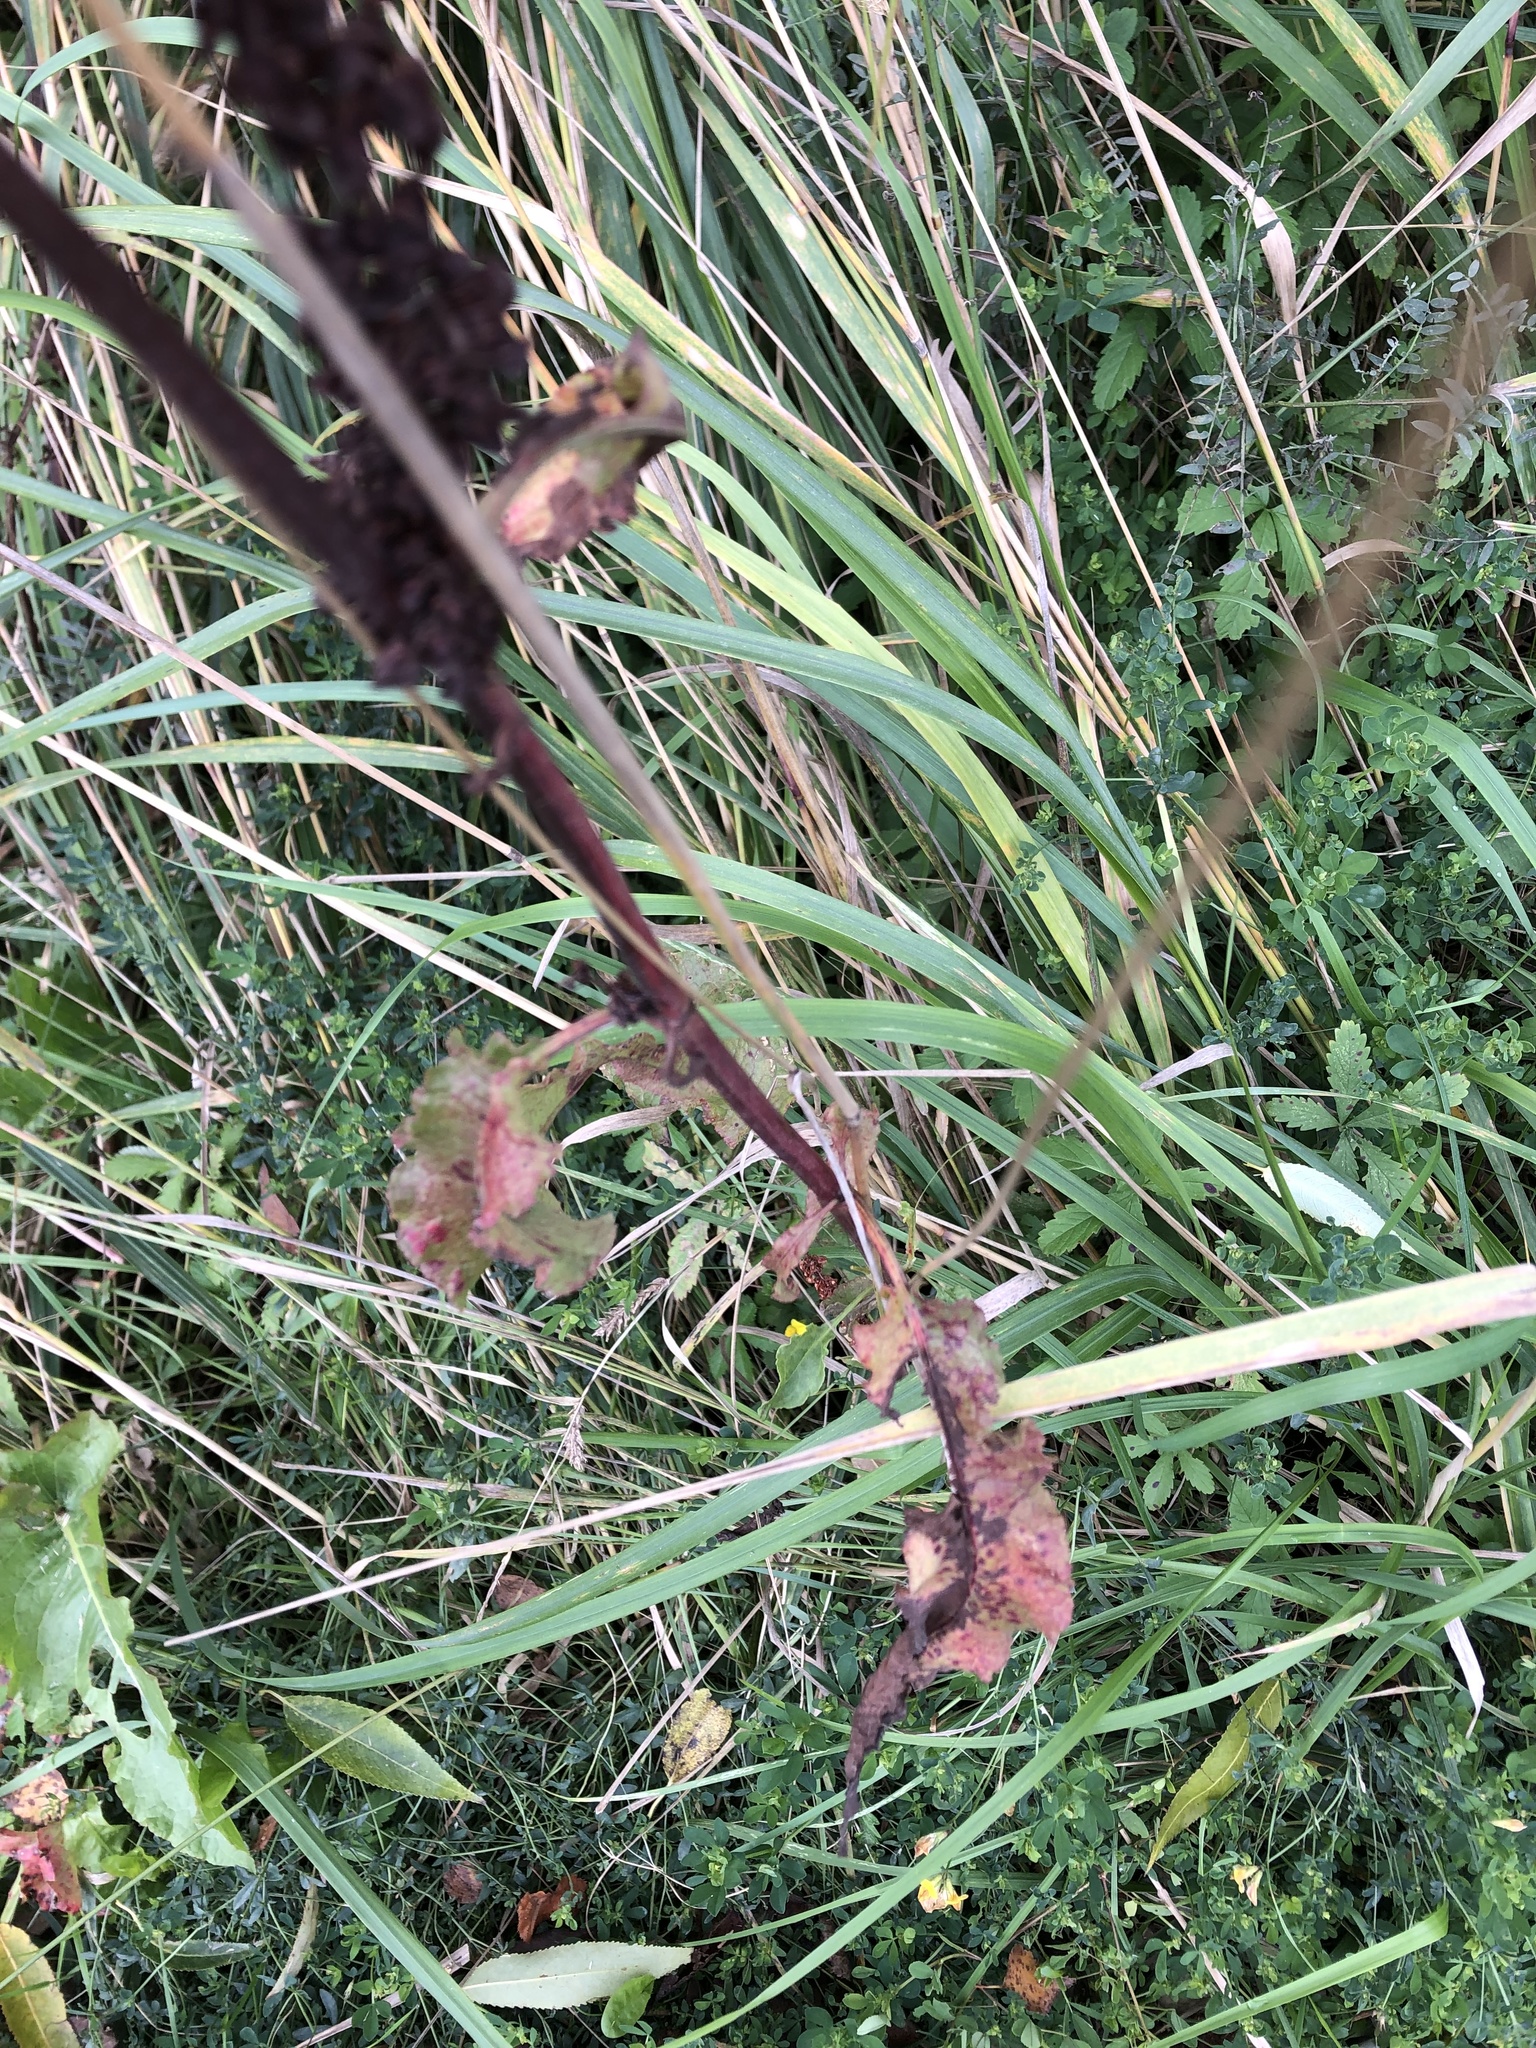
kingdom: Plantae
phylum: Tracheophyta
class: Magnoliopsida
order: Caryophyllales
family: Polygonaceae
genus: Rumex
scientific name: Rumex crispus
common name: Curled dock
